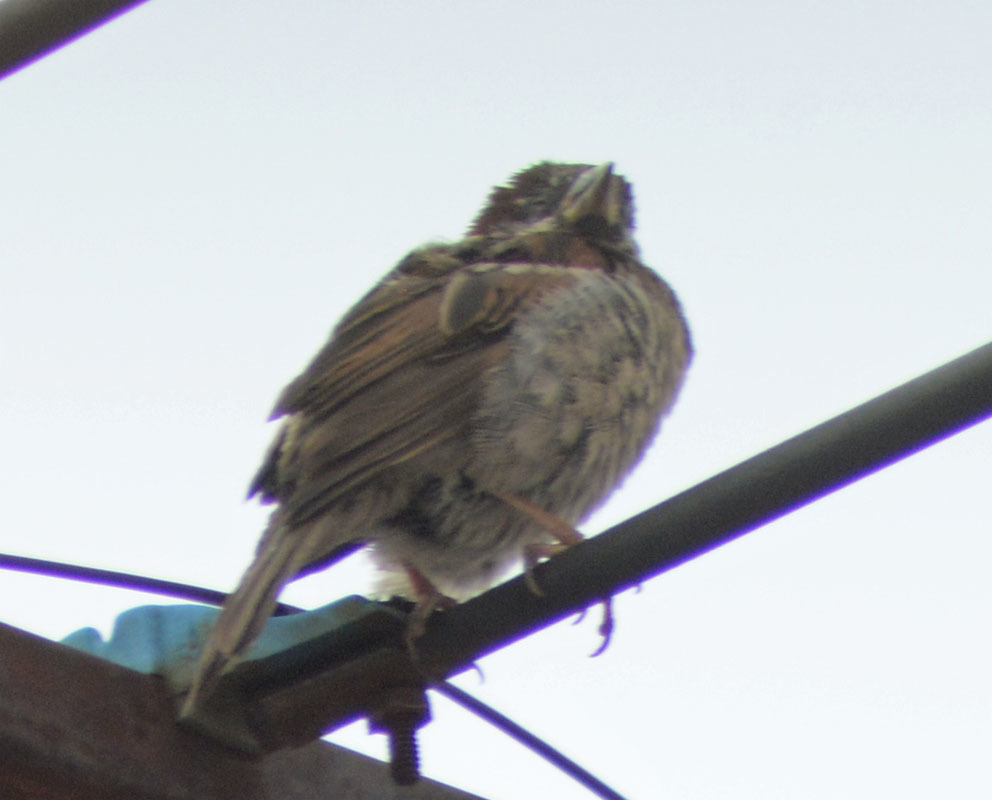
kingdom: Animalia
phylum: Chordata
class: Aves
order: Passeriformes
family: Passeridae
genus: Passer
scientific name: Passer domesticus
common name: House sparrow
